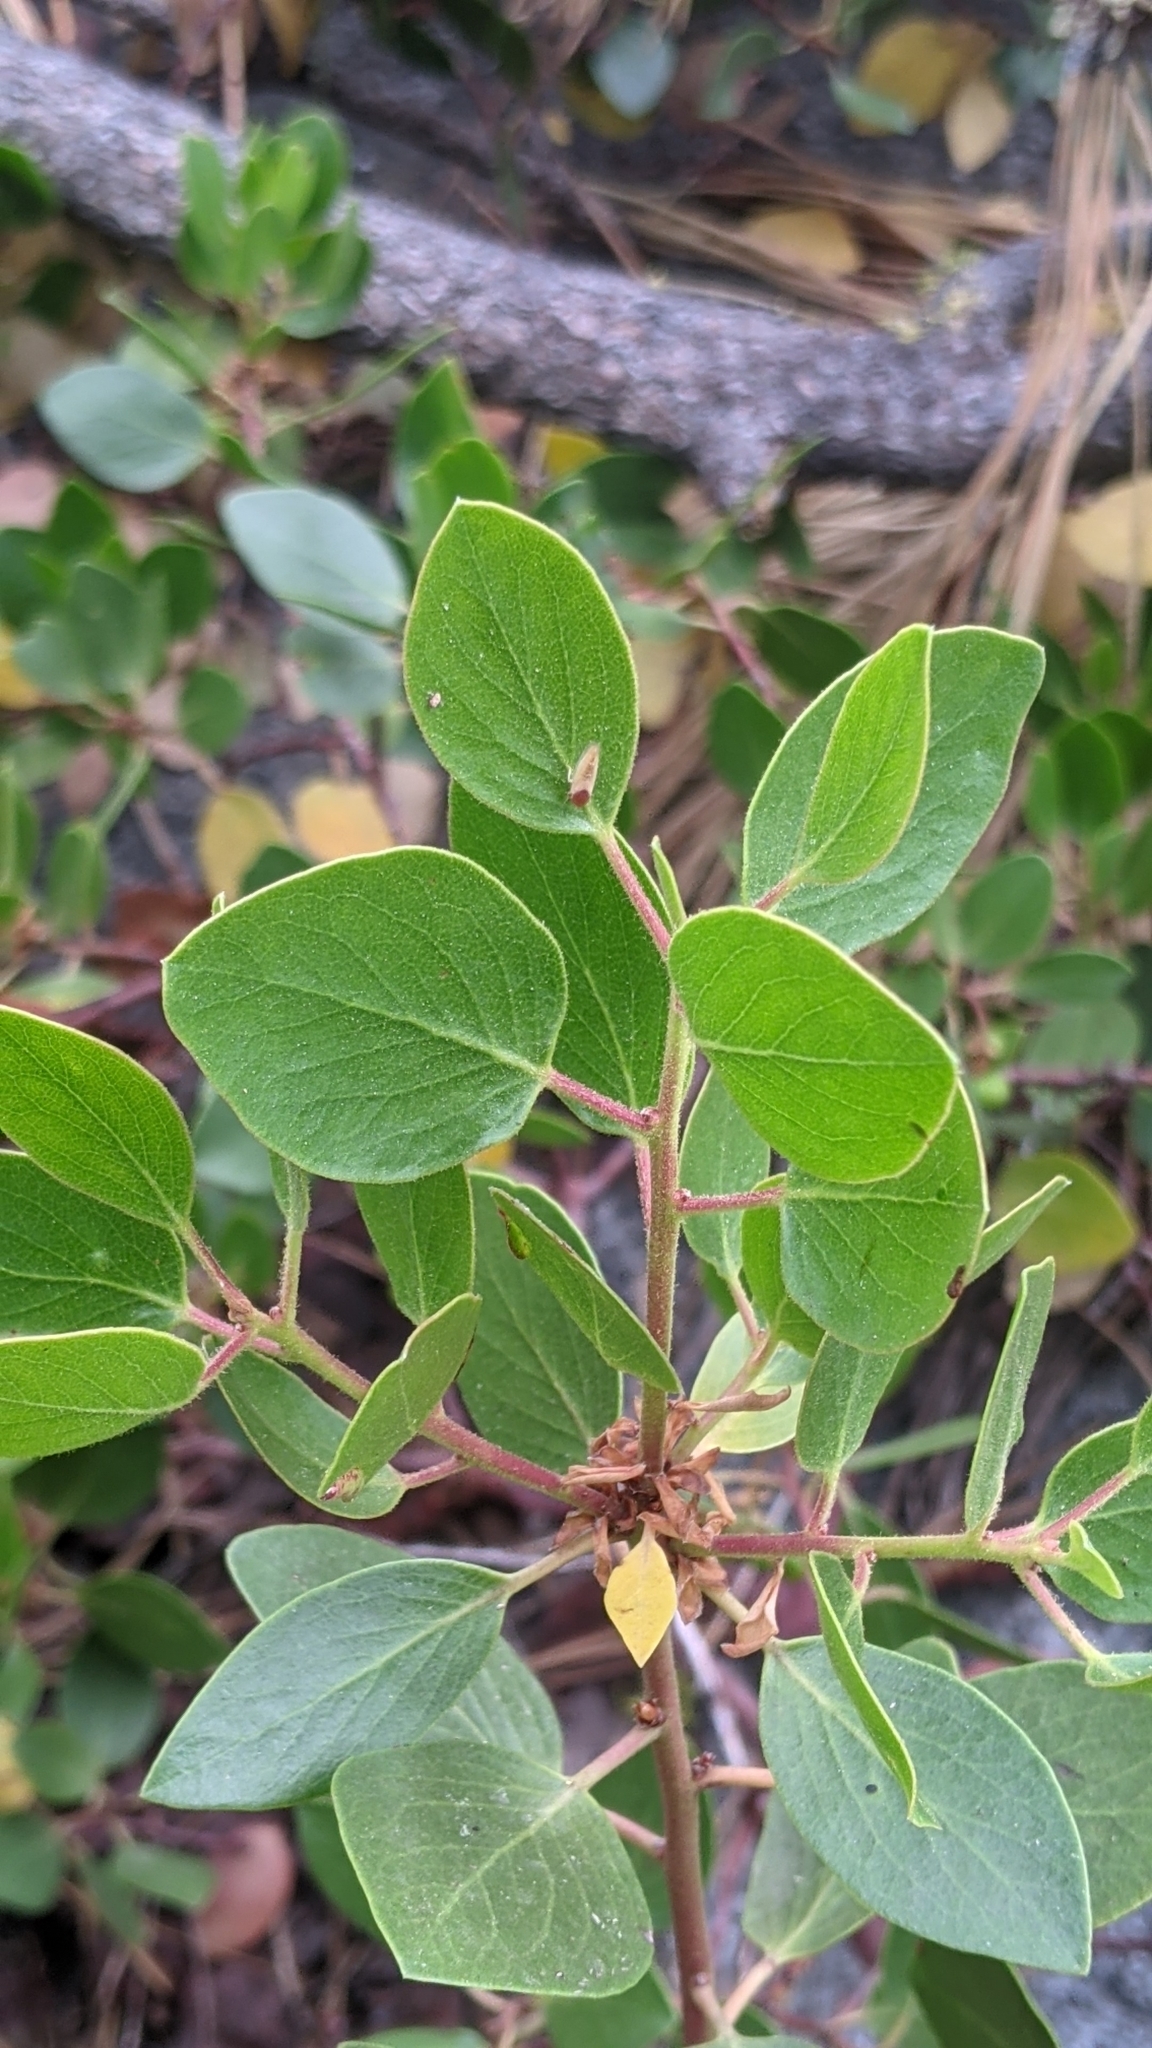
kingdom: Plantae
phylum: Tracheophyta
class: Magnoliopsida
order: Ericales
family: Ericaceae
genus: Arctostaphylos
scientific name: Arctostaphylos patula
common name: Green-leaf manzanita
